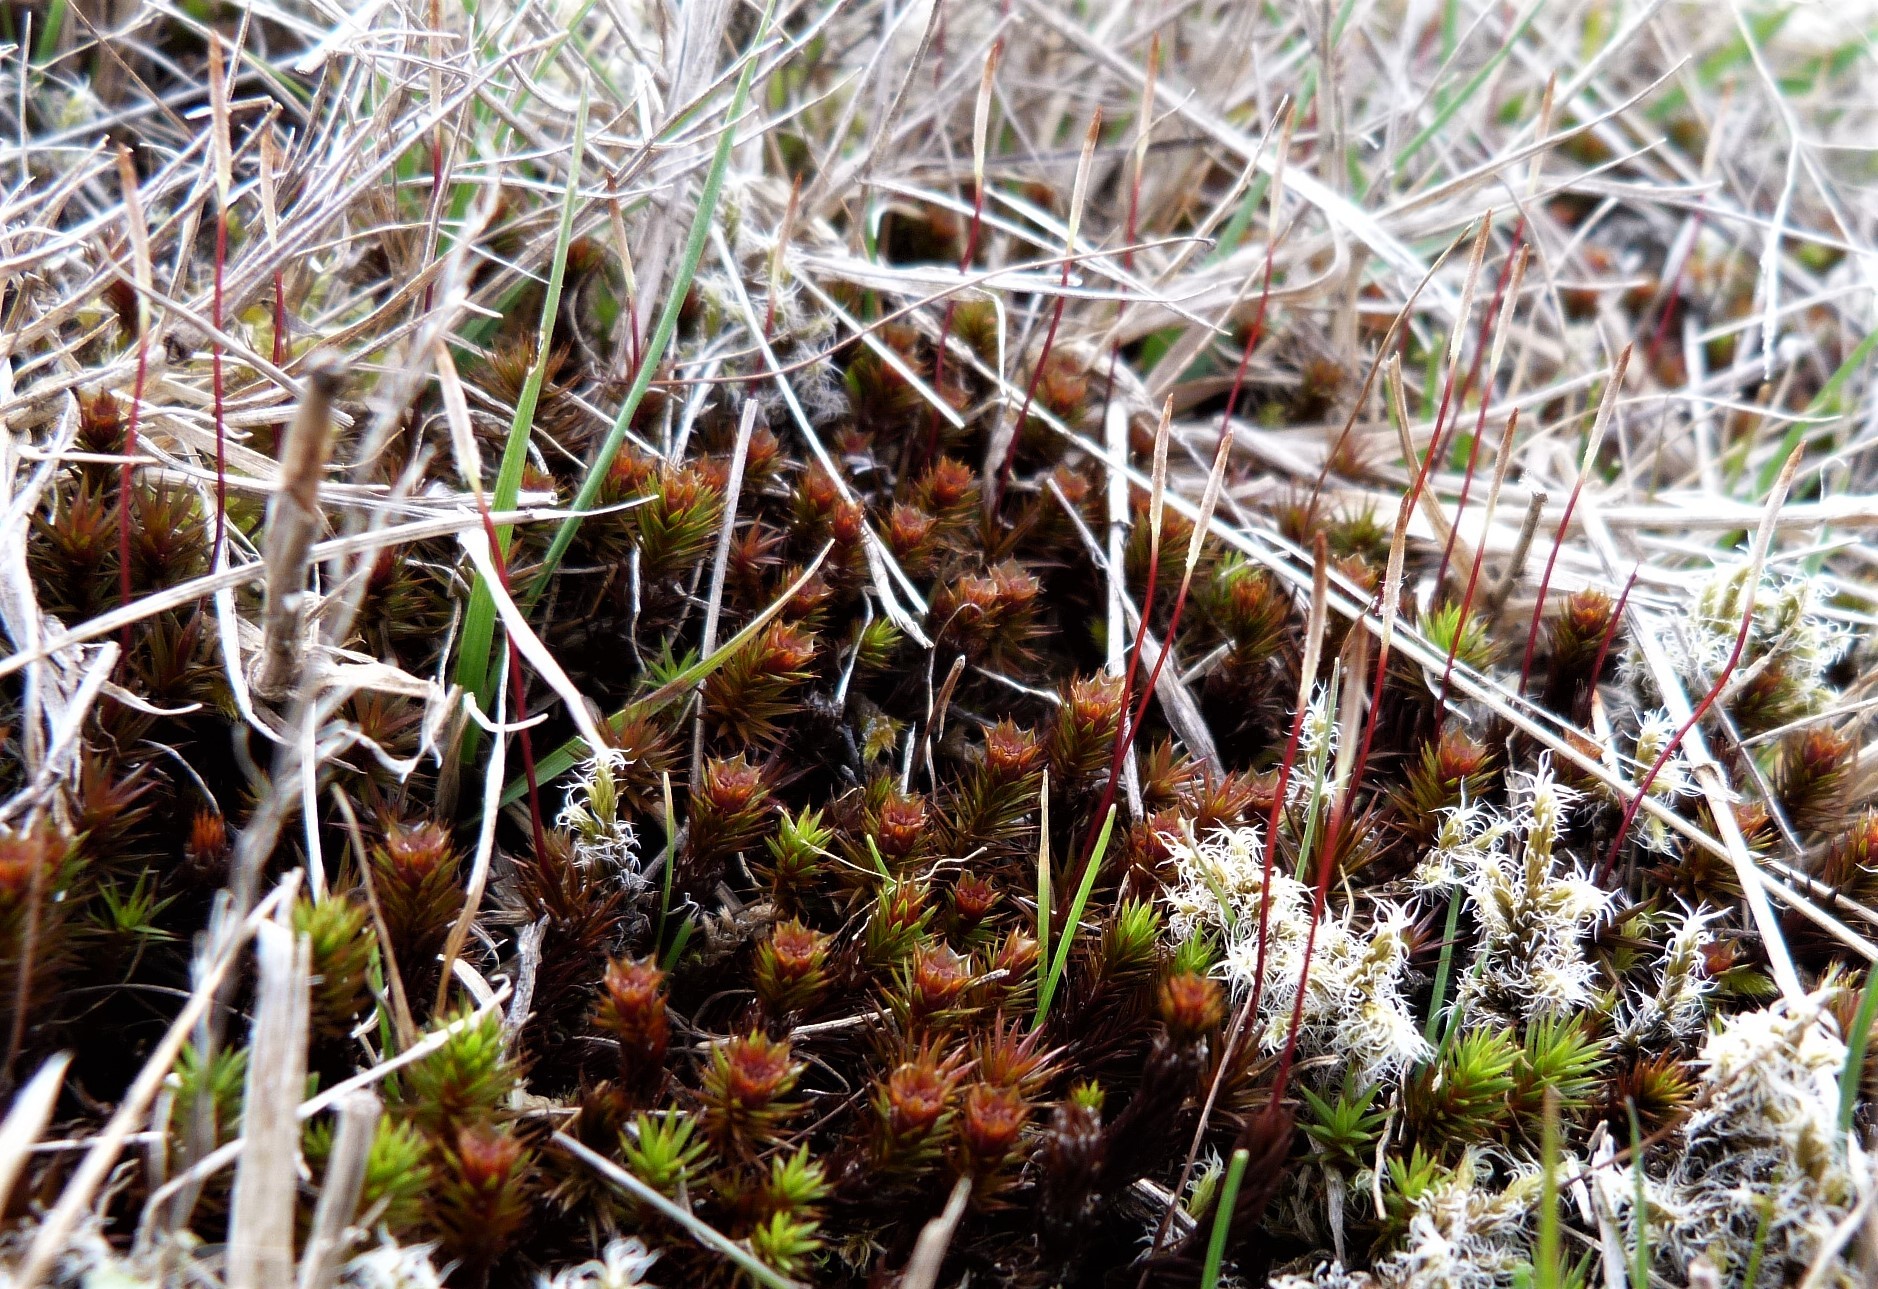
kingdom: Plantae
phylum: Bryophyta
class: Polytrichopsida
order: Polytrichales
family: Polytrichaceae
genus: Polytrichum
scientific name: Polytrichum juniperinum
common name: Juniper haircap moss
